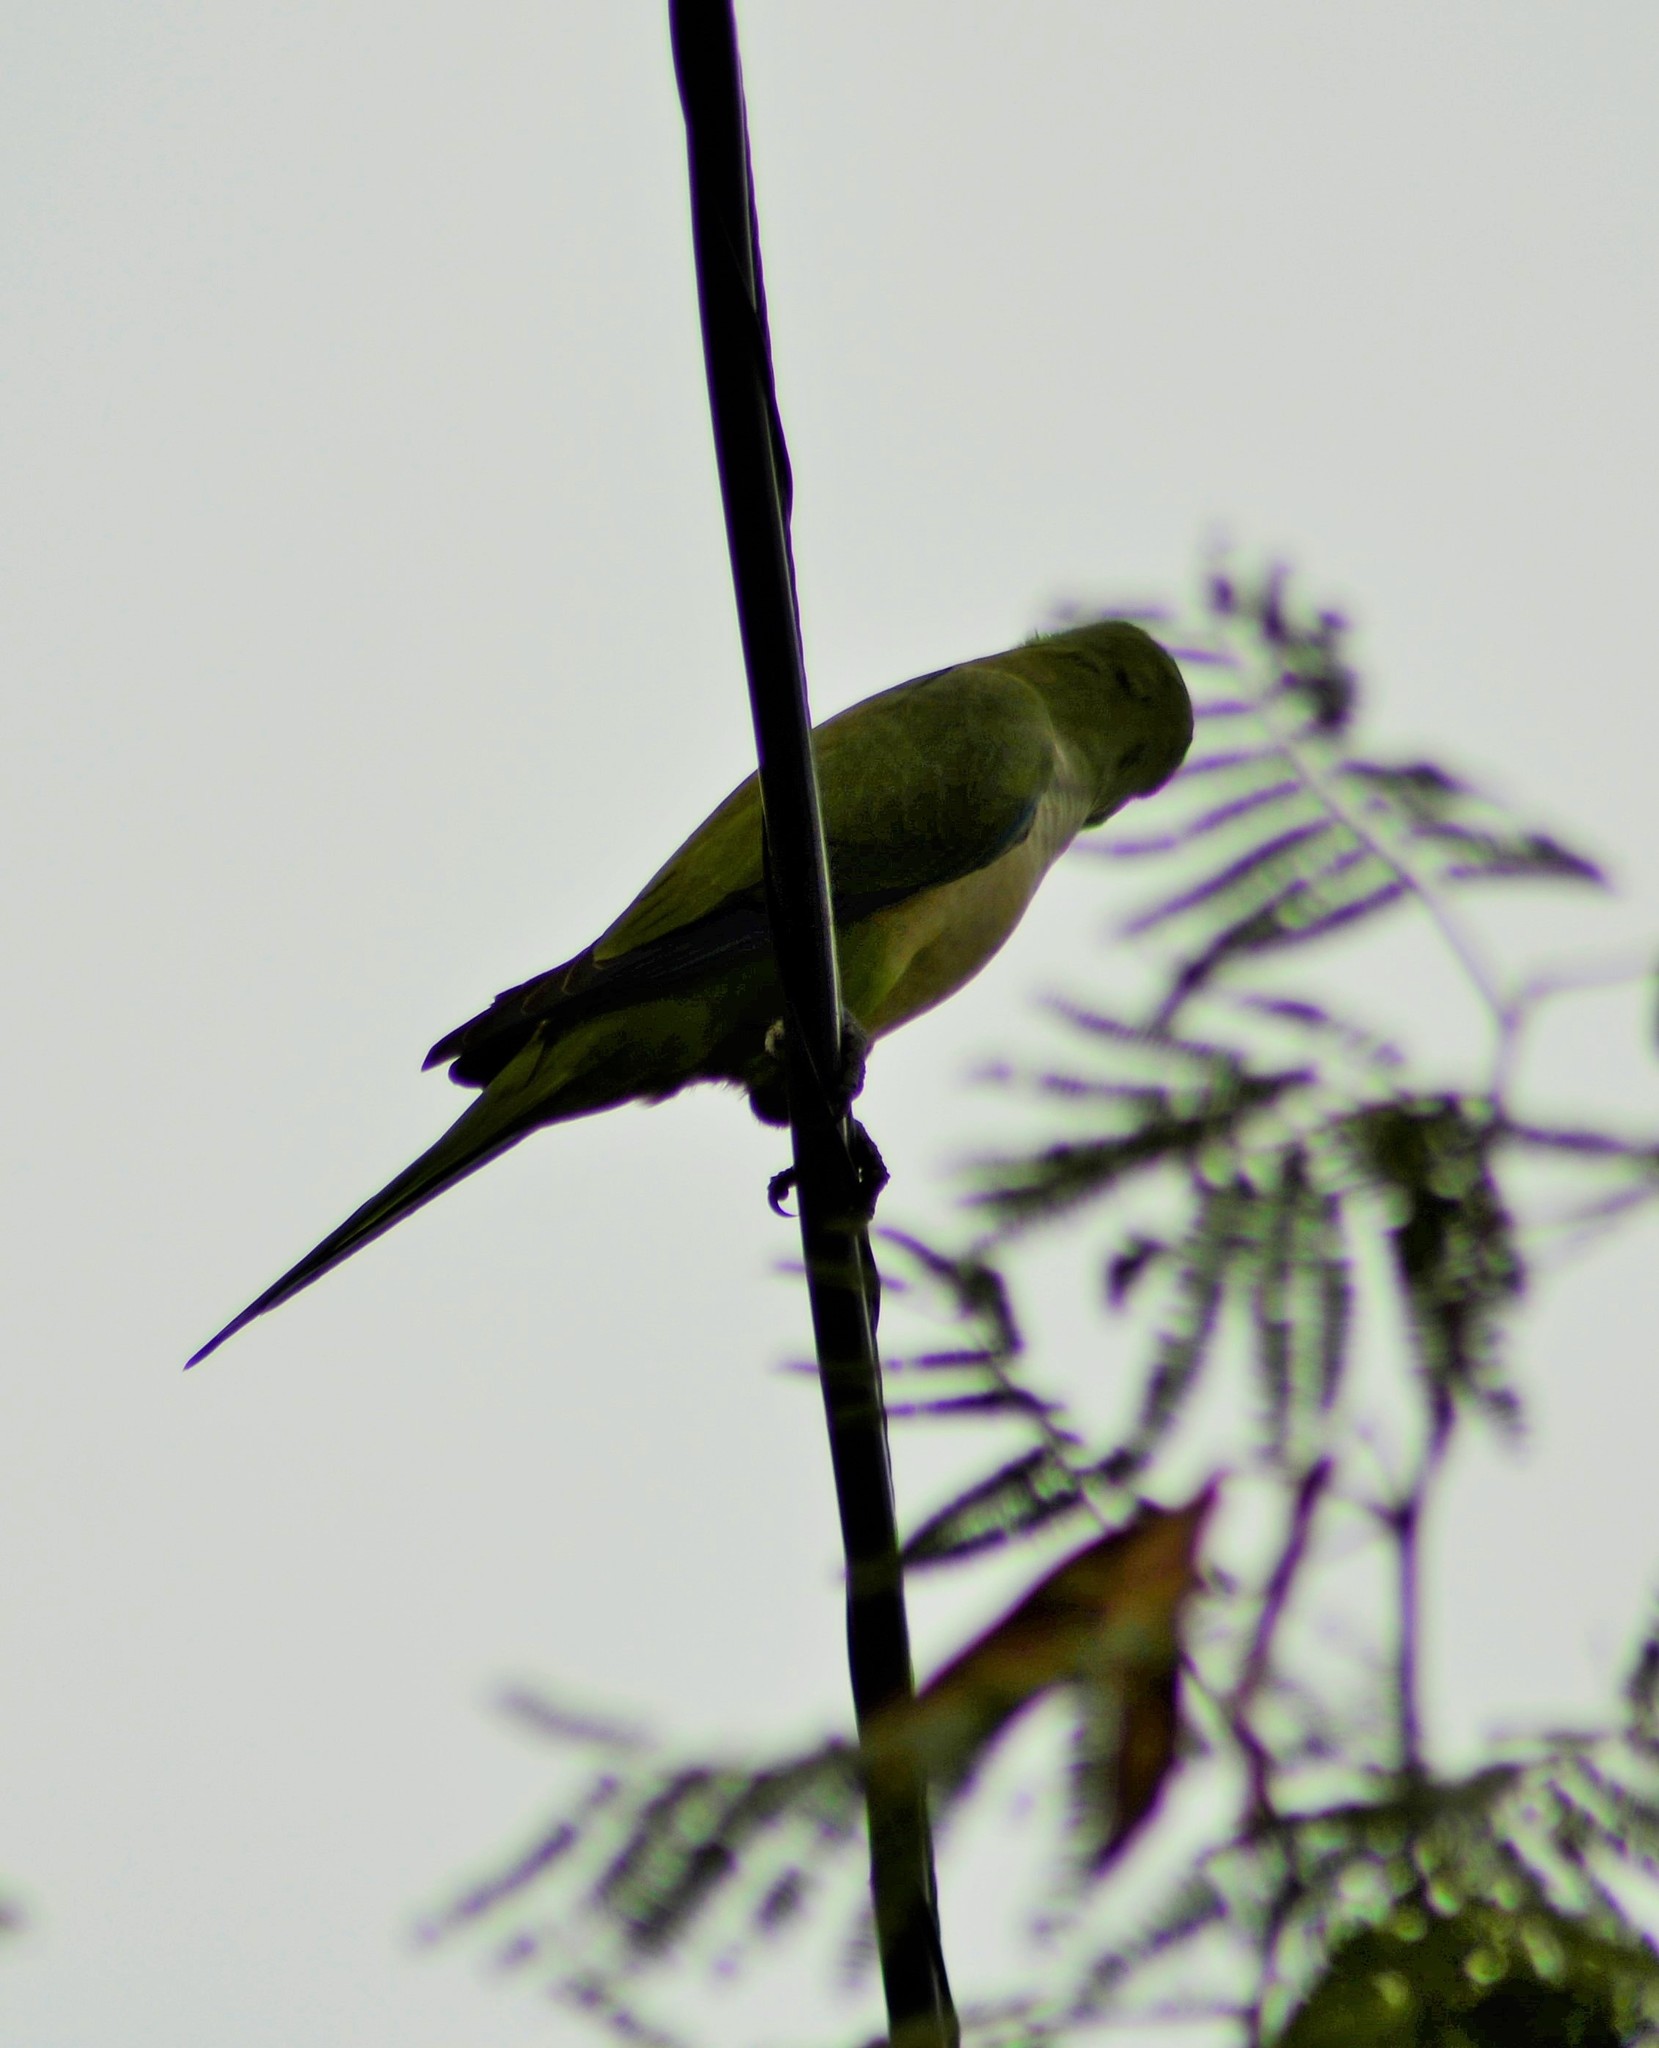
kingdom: Animalia
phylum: Chordata
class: Aves
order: Psittaciformes
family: Psittacidae
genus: Myiopsitta
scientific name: Myiopsitta monachus
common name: Monk parakeet
